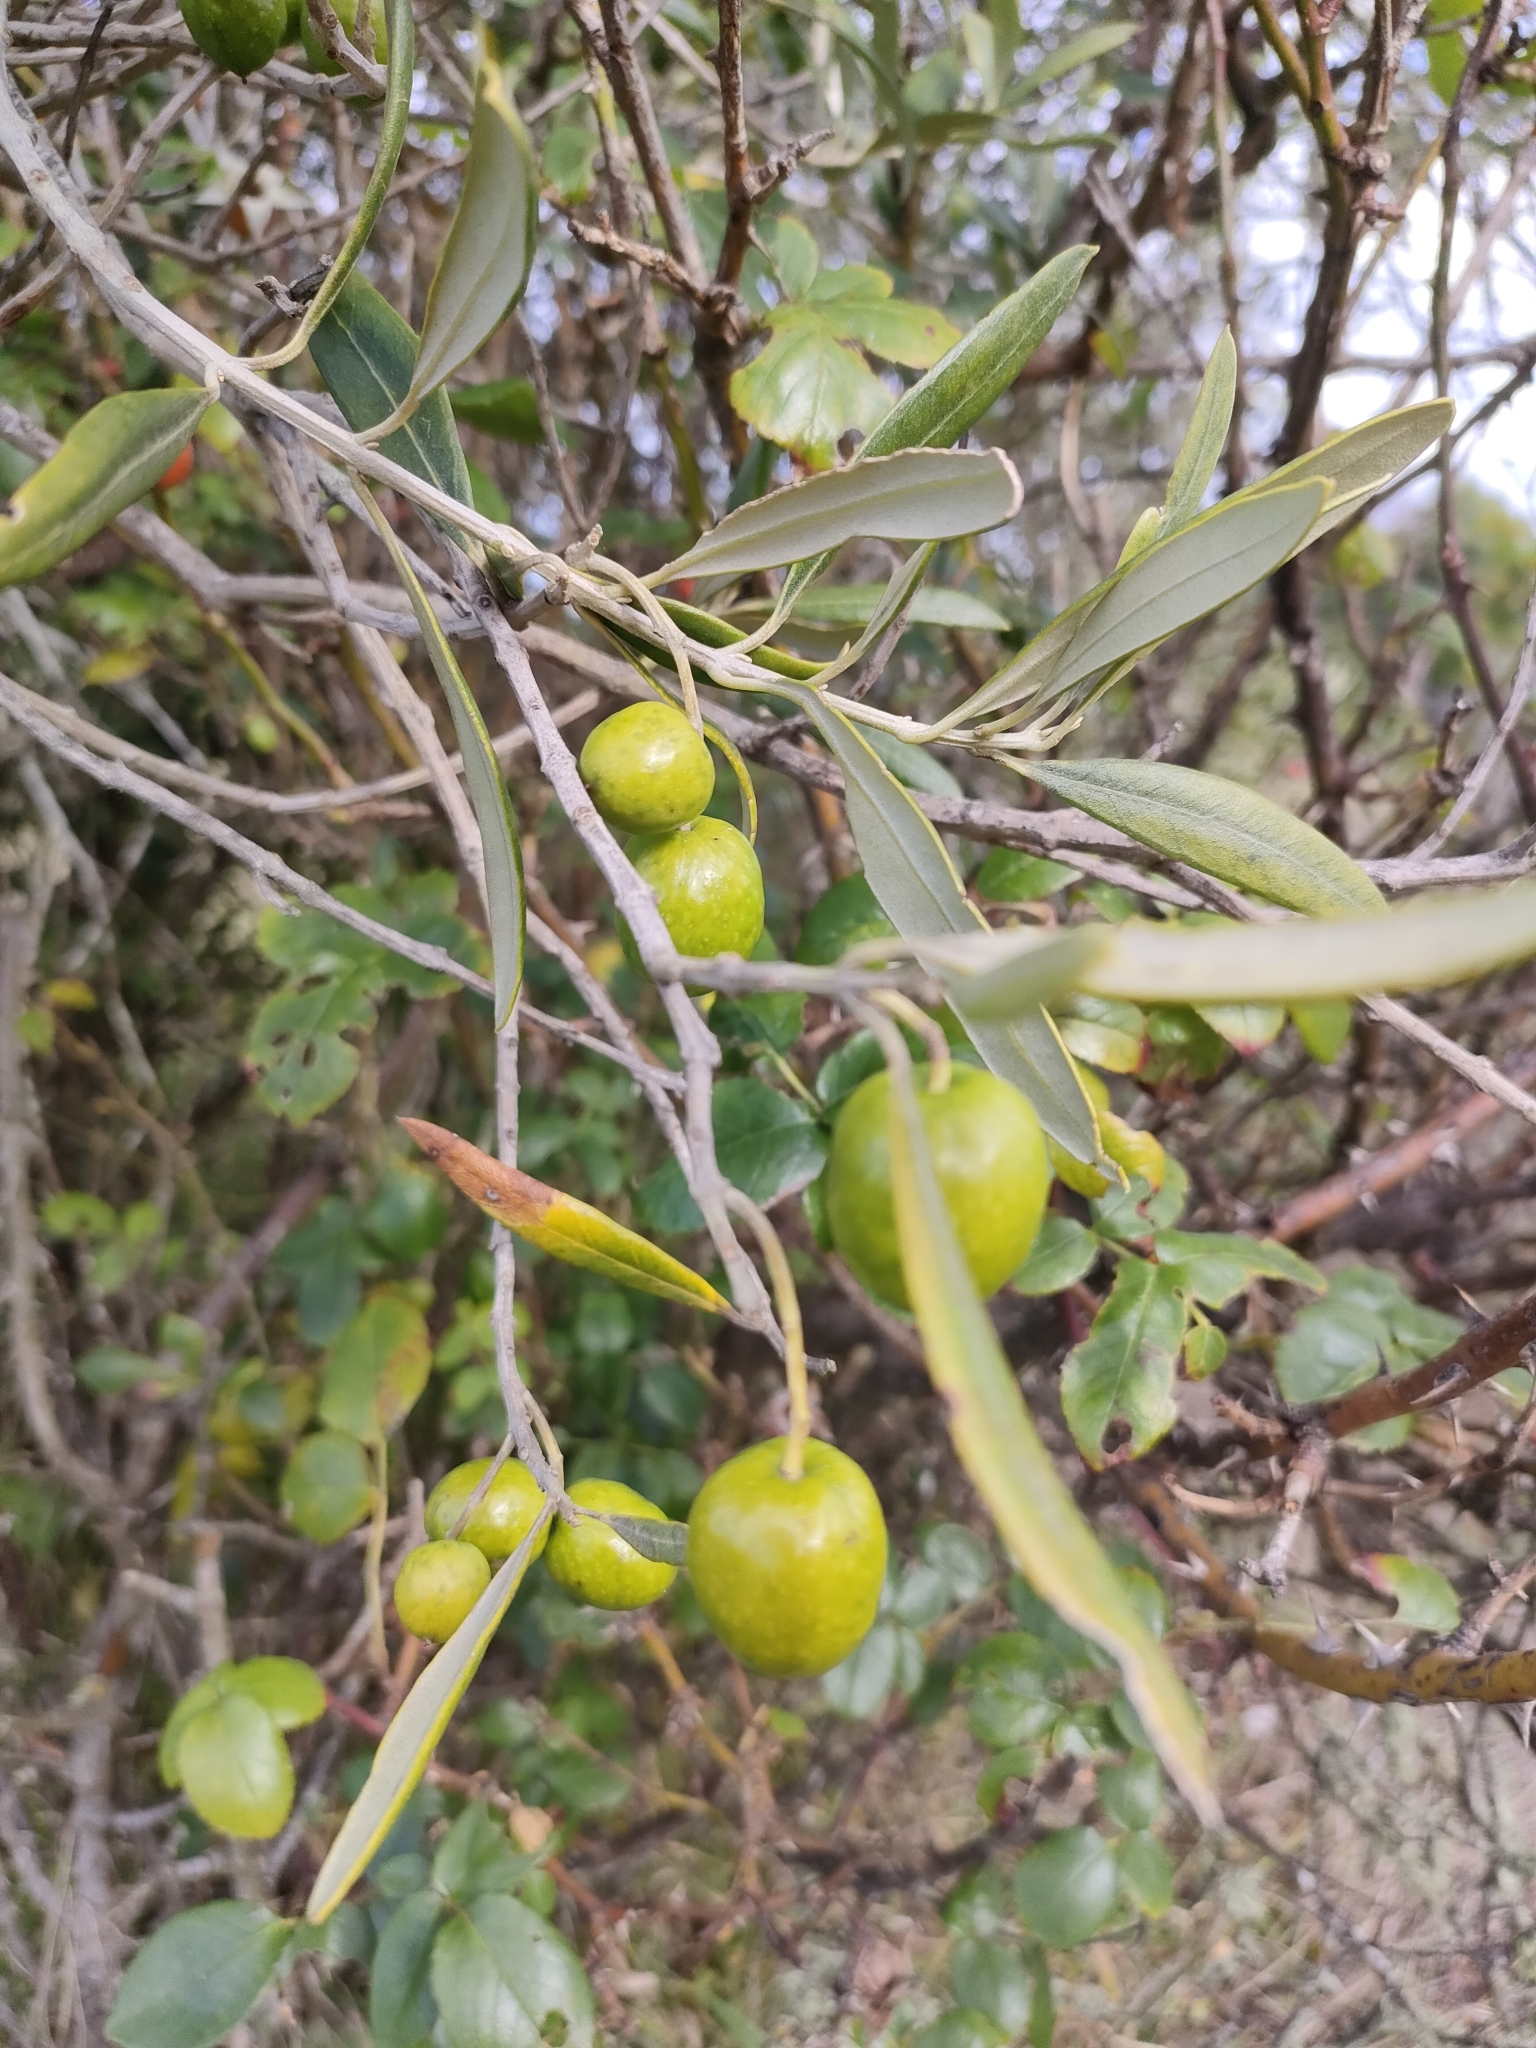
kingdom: Plantae
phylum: Tracheophyta
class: Magnoliopsida
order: Lamiales
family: Oleaceae
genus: Olea
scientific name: Olea europaea
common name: Olive
